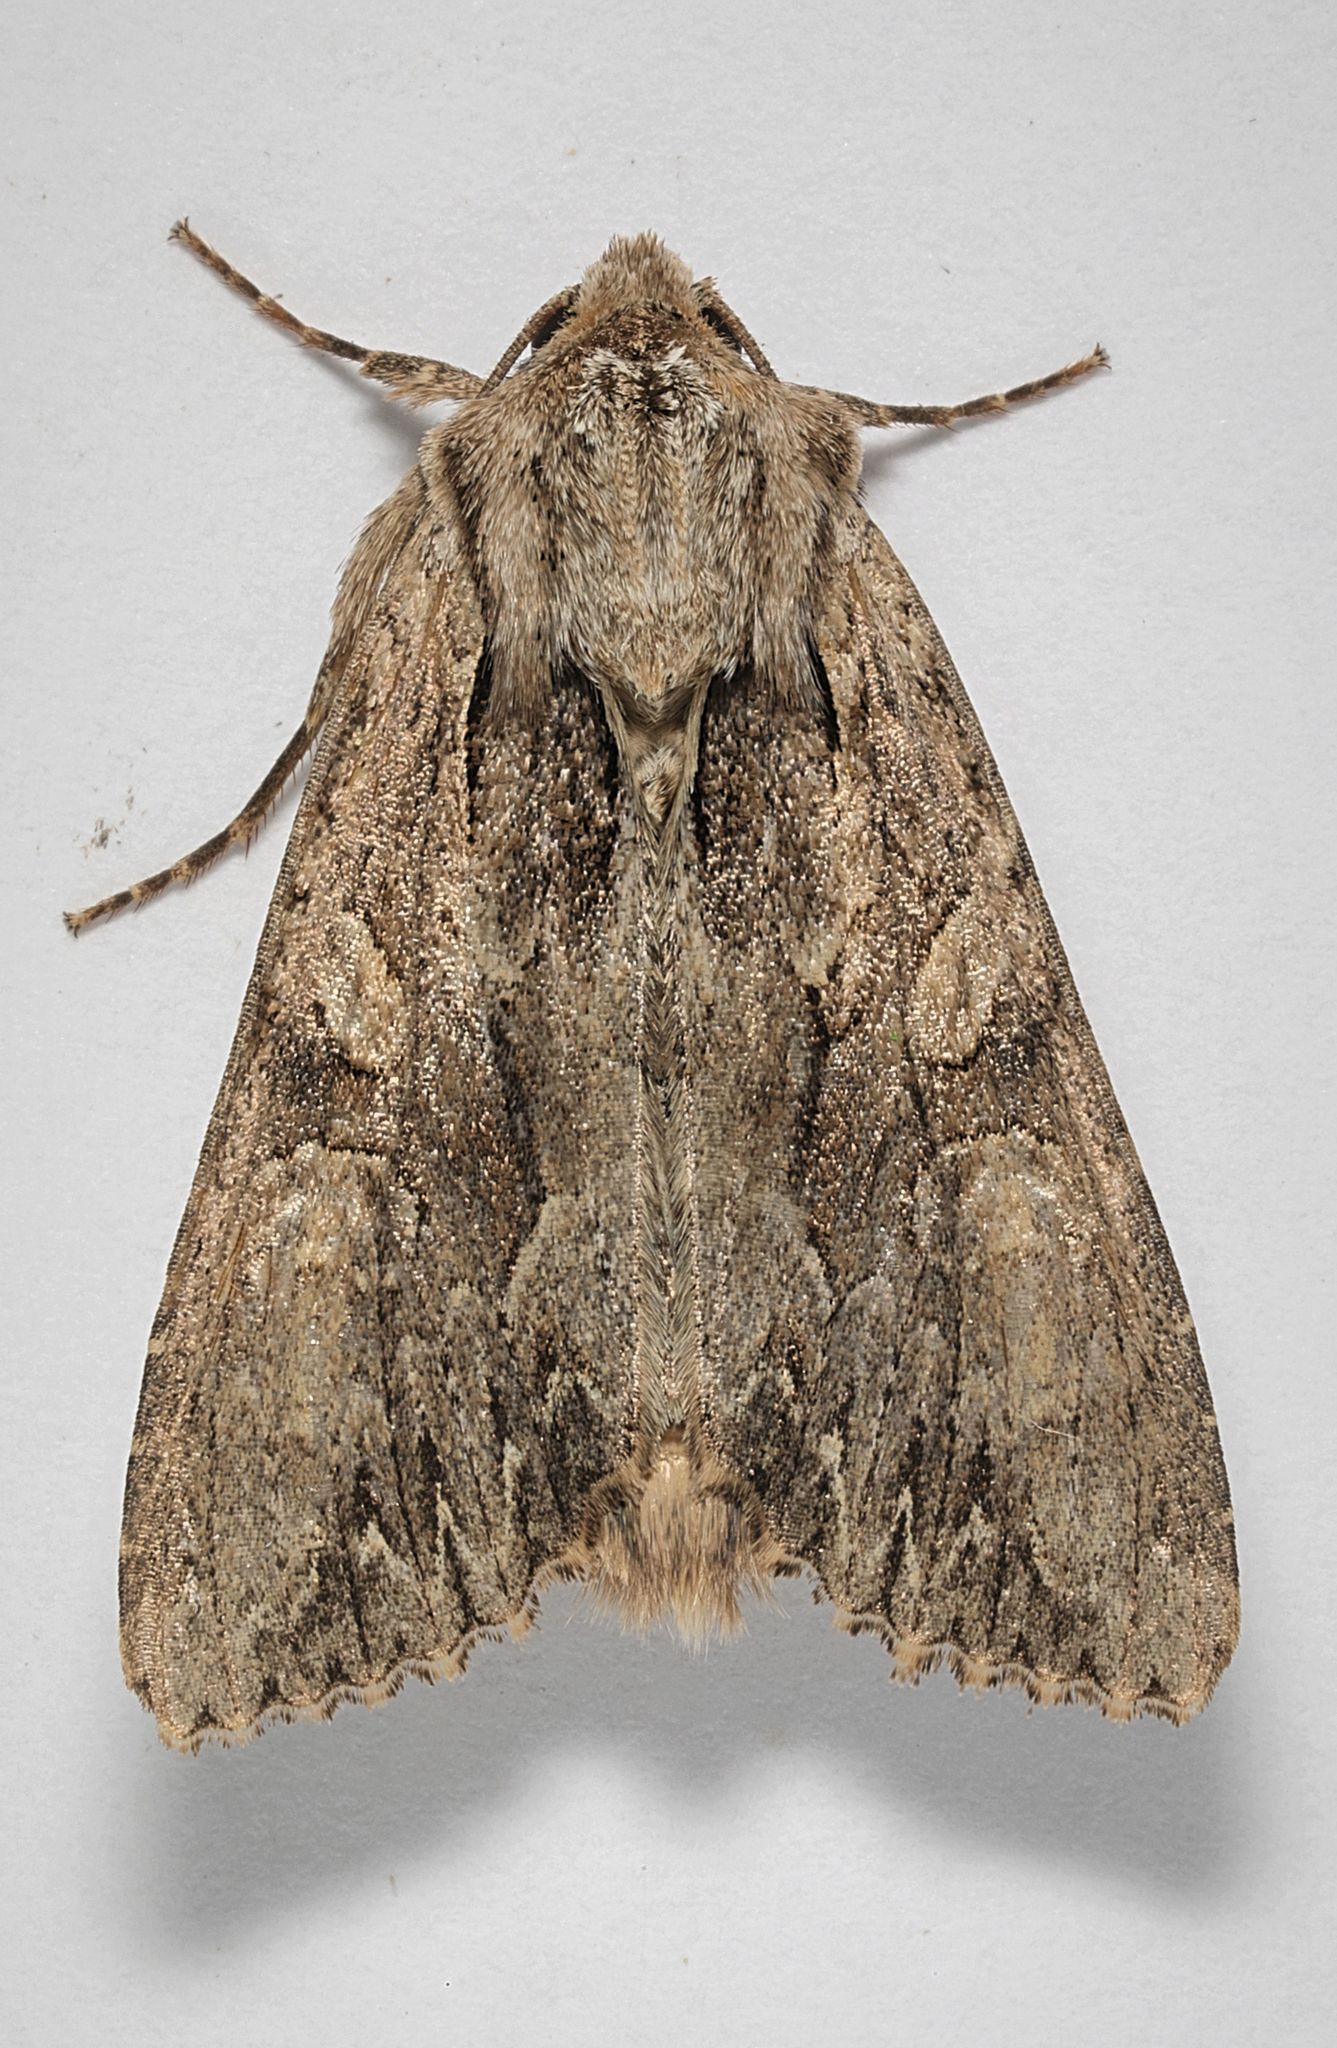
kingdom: Animalia
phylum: Arthropoda
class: Insecta
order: Lepidoptera
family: Noctuidae
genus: Apamea
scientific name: Apamea monoglypha
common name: Dark arches
